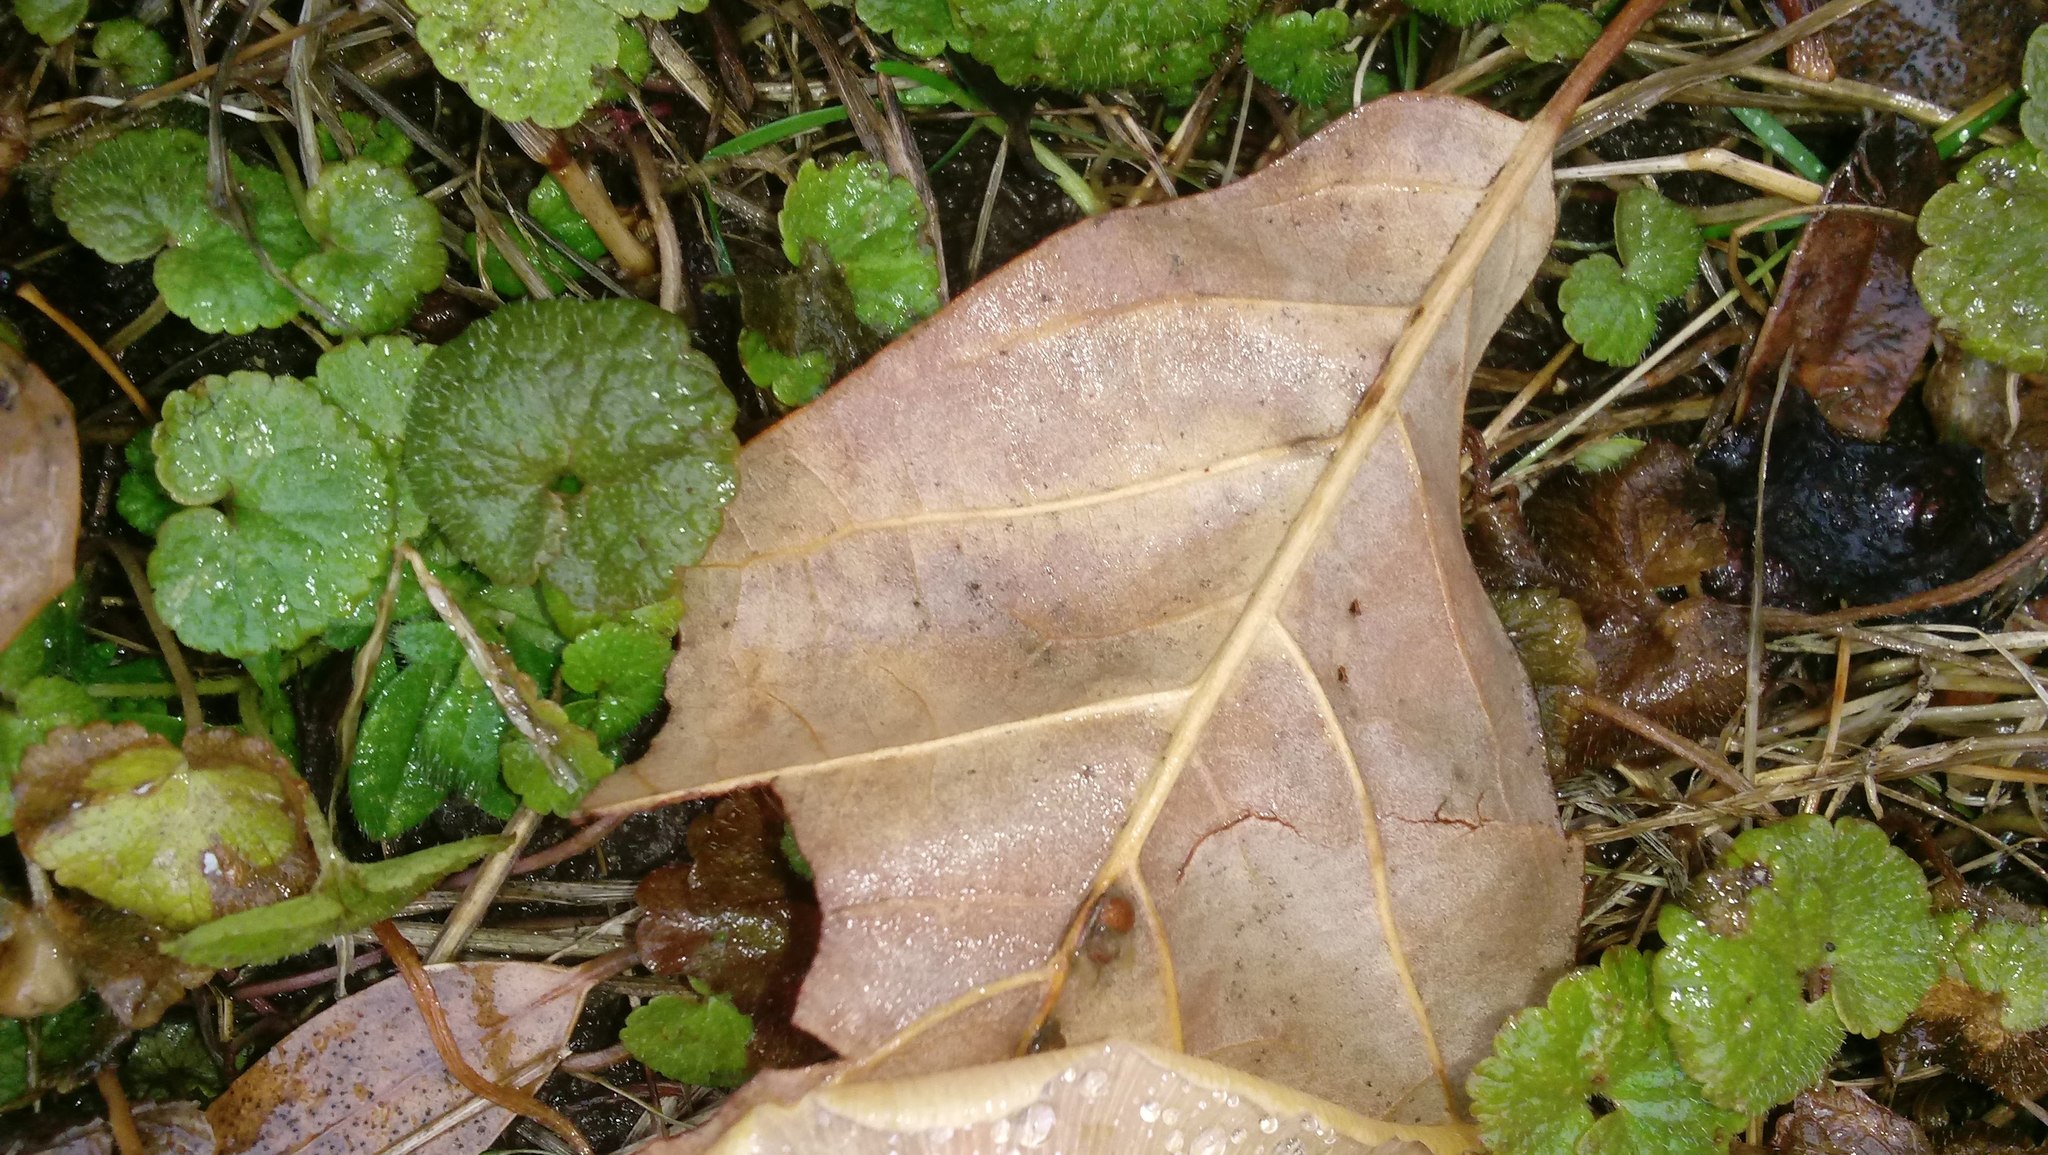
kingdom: Animalia
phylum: Arthropoda
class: Insecta
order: Hymenoptera
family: Cynipidae
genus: Andricus
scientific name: Andricus Druon ignotum
